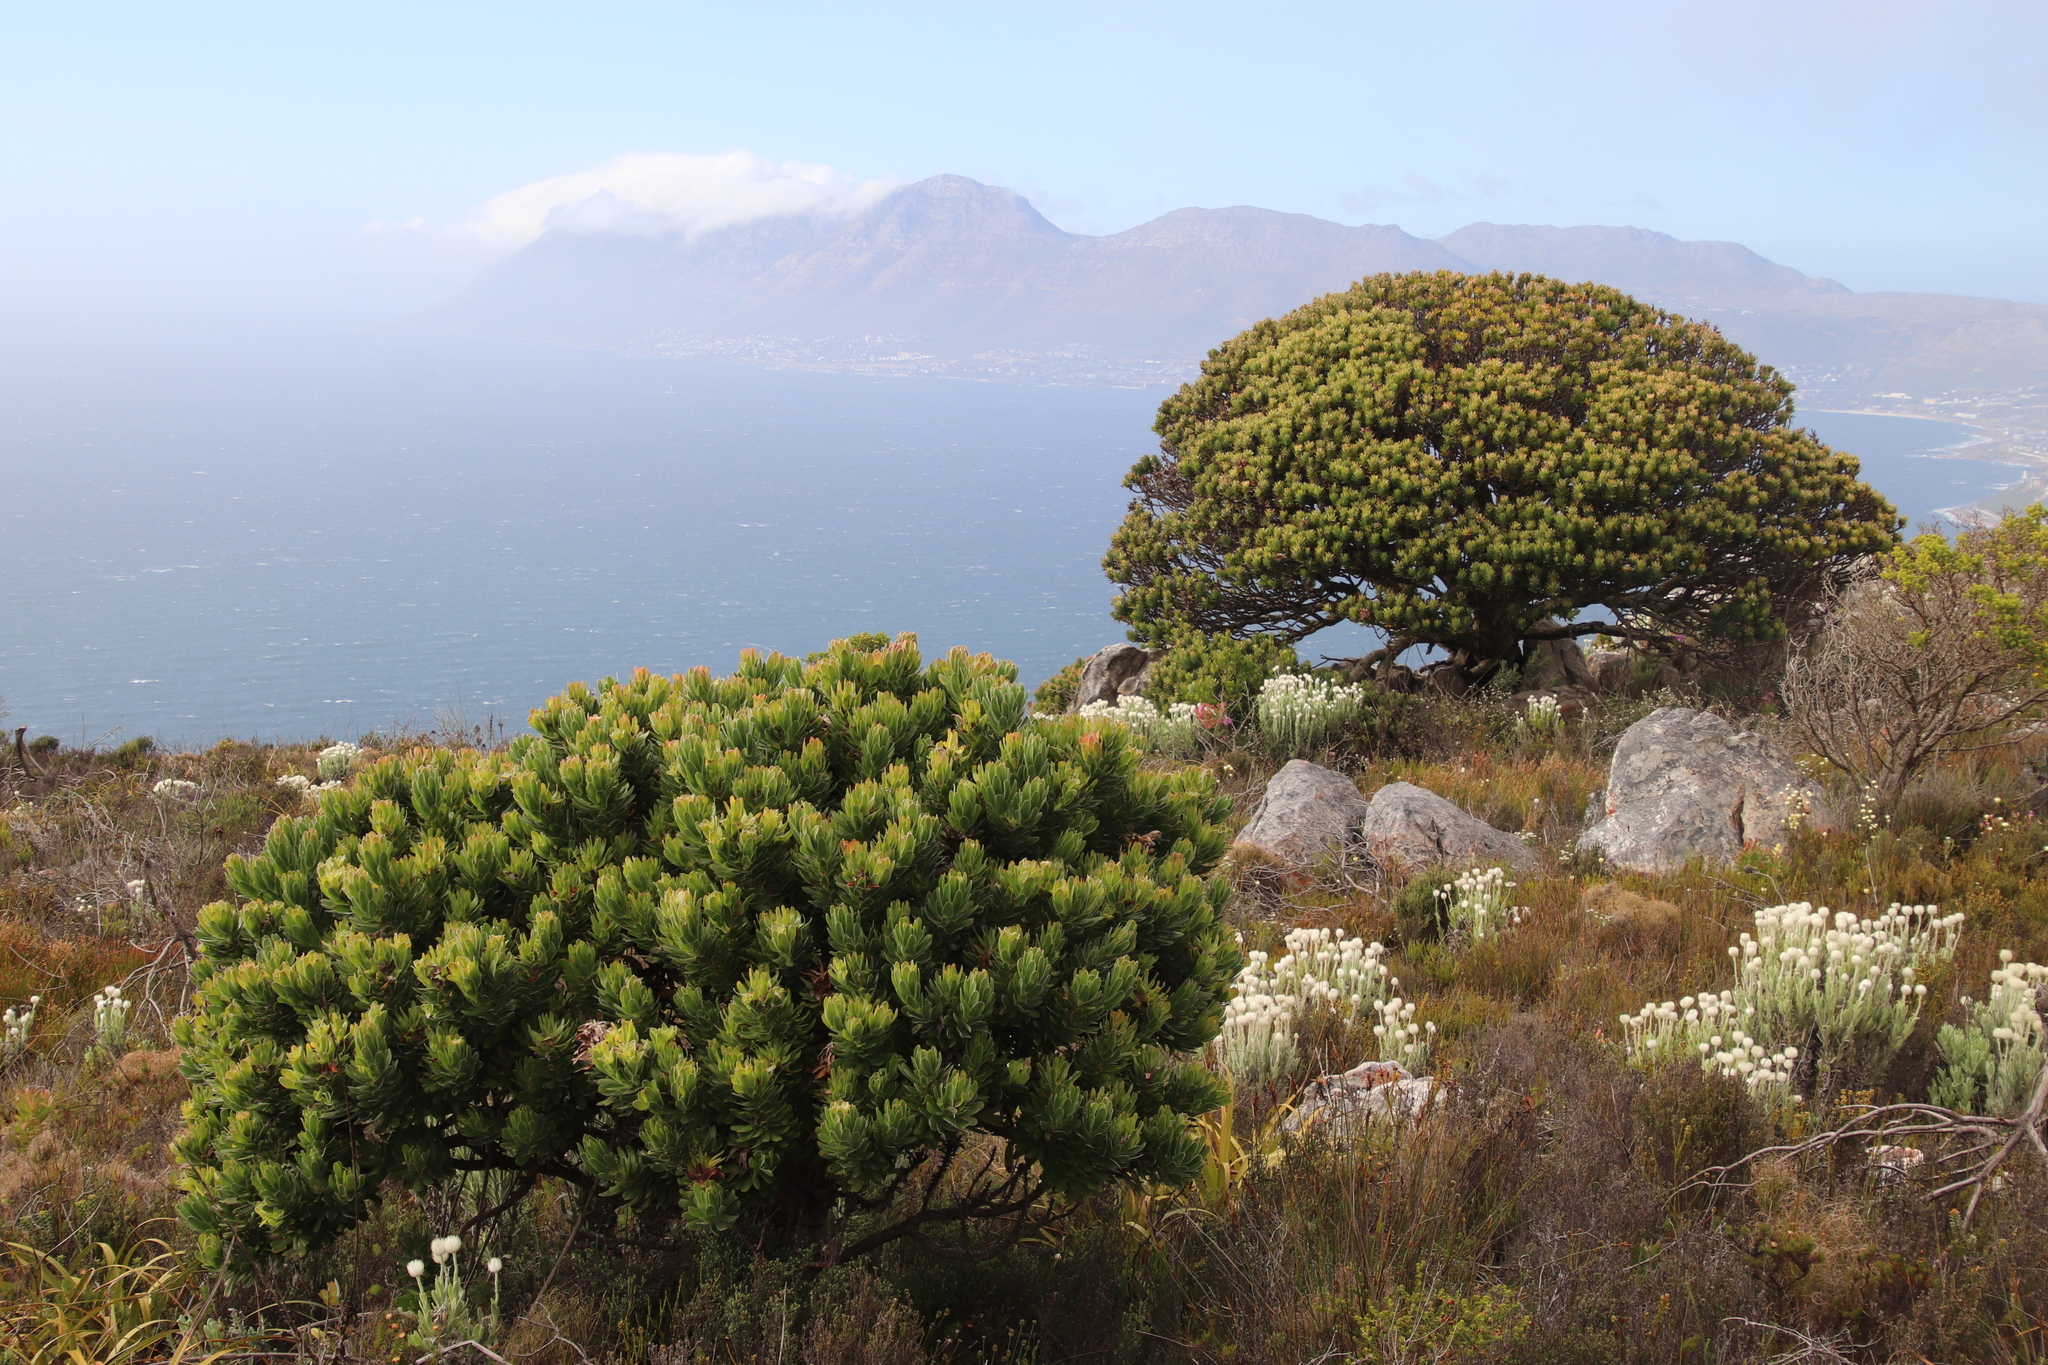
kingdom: Plantae
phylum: Tracheophyta
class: Magnoliopsida
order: Proteales
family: Proteaceae
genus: Mimetes
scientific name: Mimetes fimbriifolius
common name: Fringed bottlebrush
